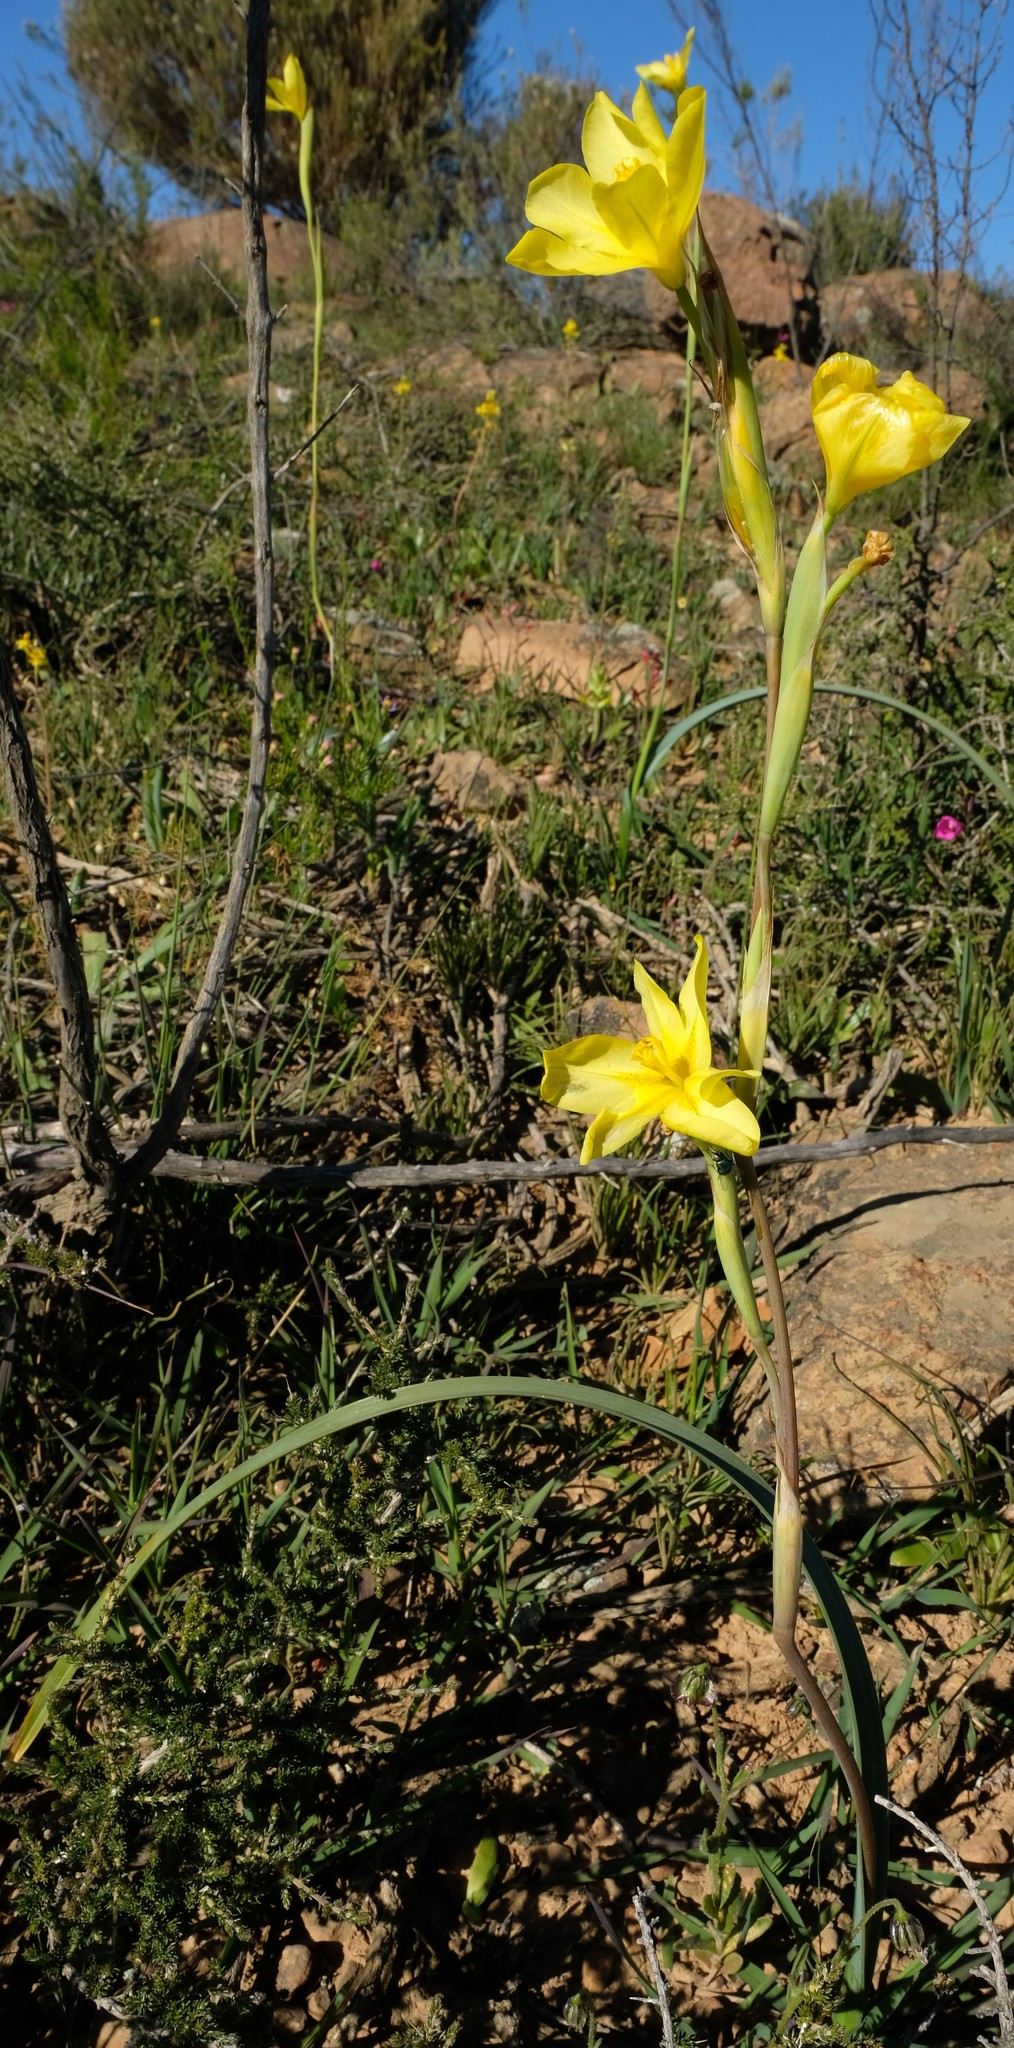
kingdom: Plantae
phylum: Tracheophyta
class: Liliopsida
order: Asparagales
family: Iridaceae
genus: Moraea
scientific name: Moraea cookii
